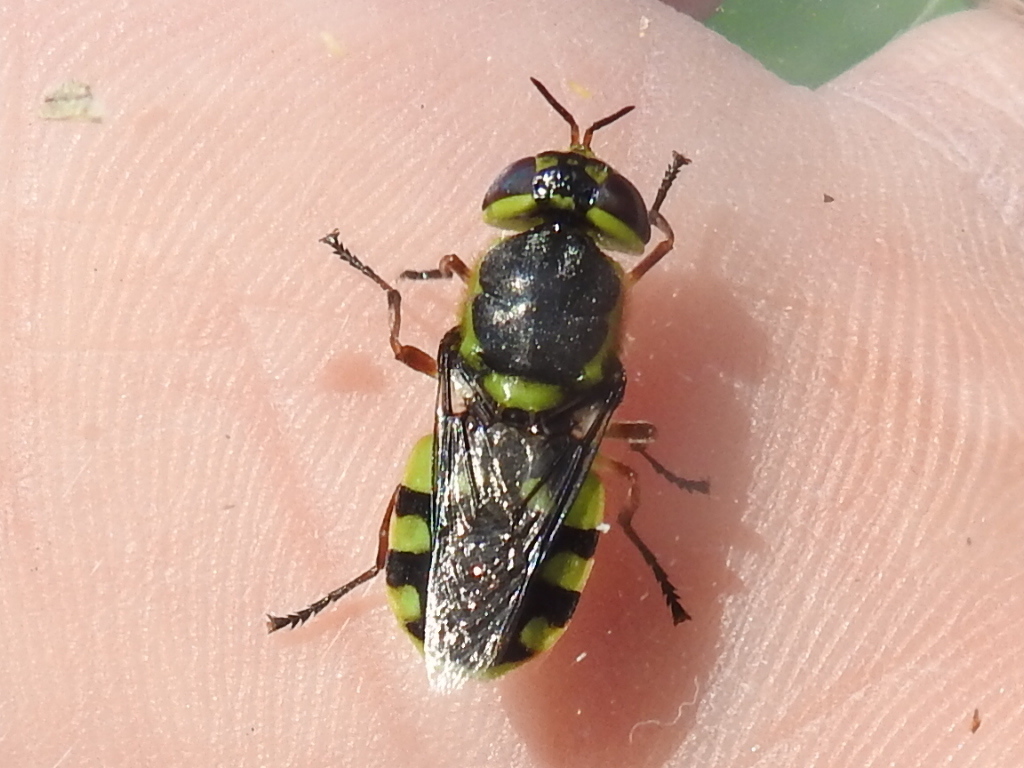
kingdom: Animalia
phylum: Arthropoda
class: Insecta
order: Diptera
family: Stratiomyidae
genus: Hedriodiscus
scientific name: Hedriodiscus truquii
